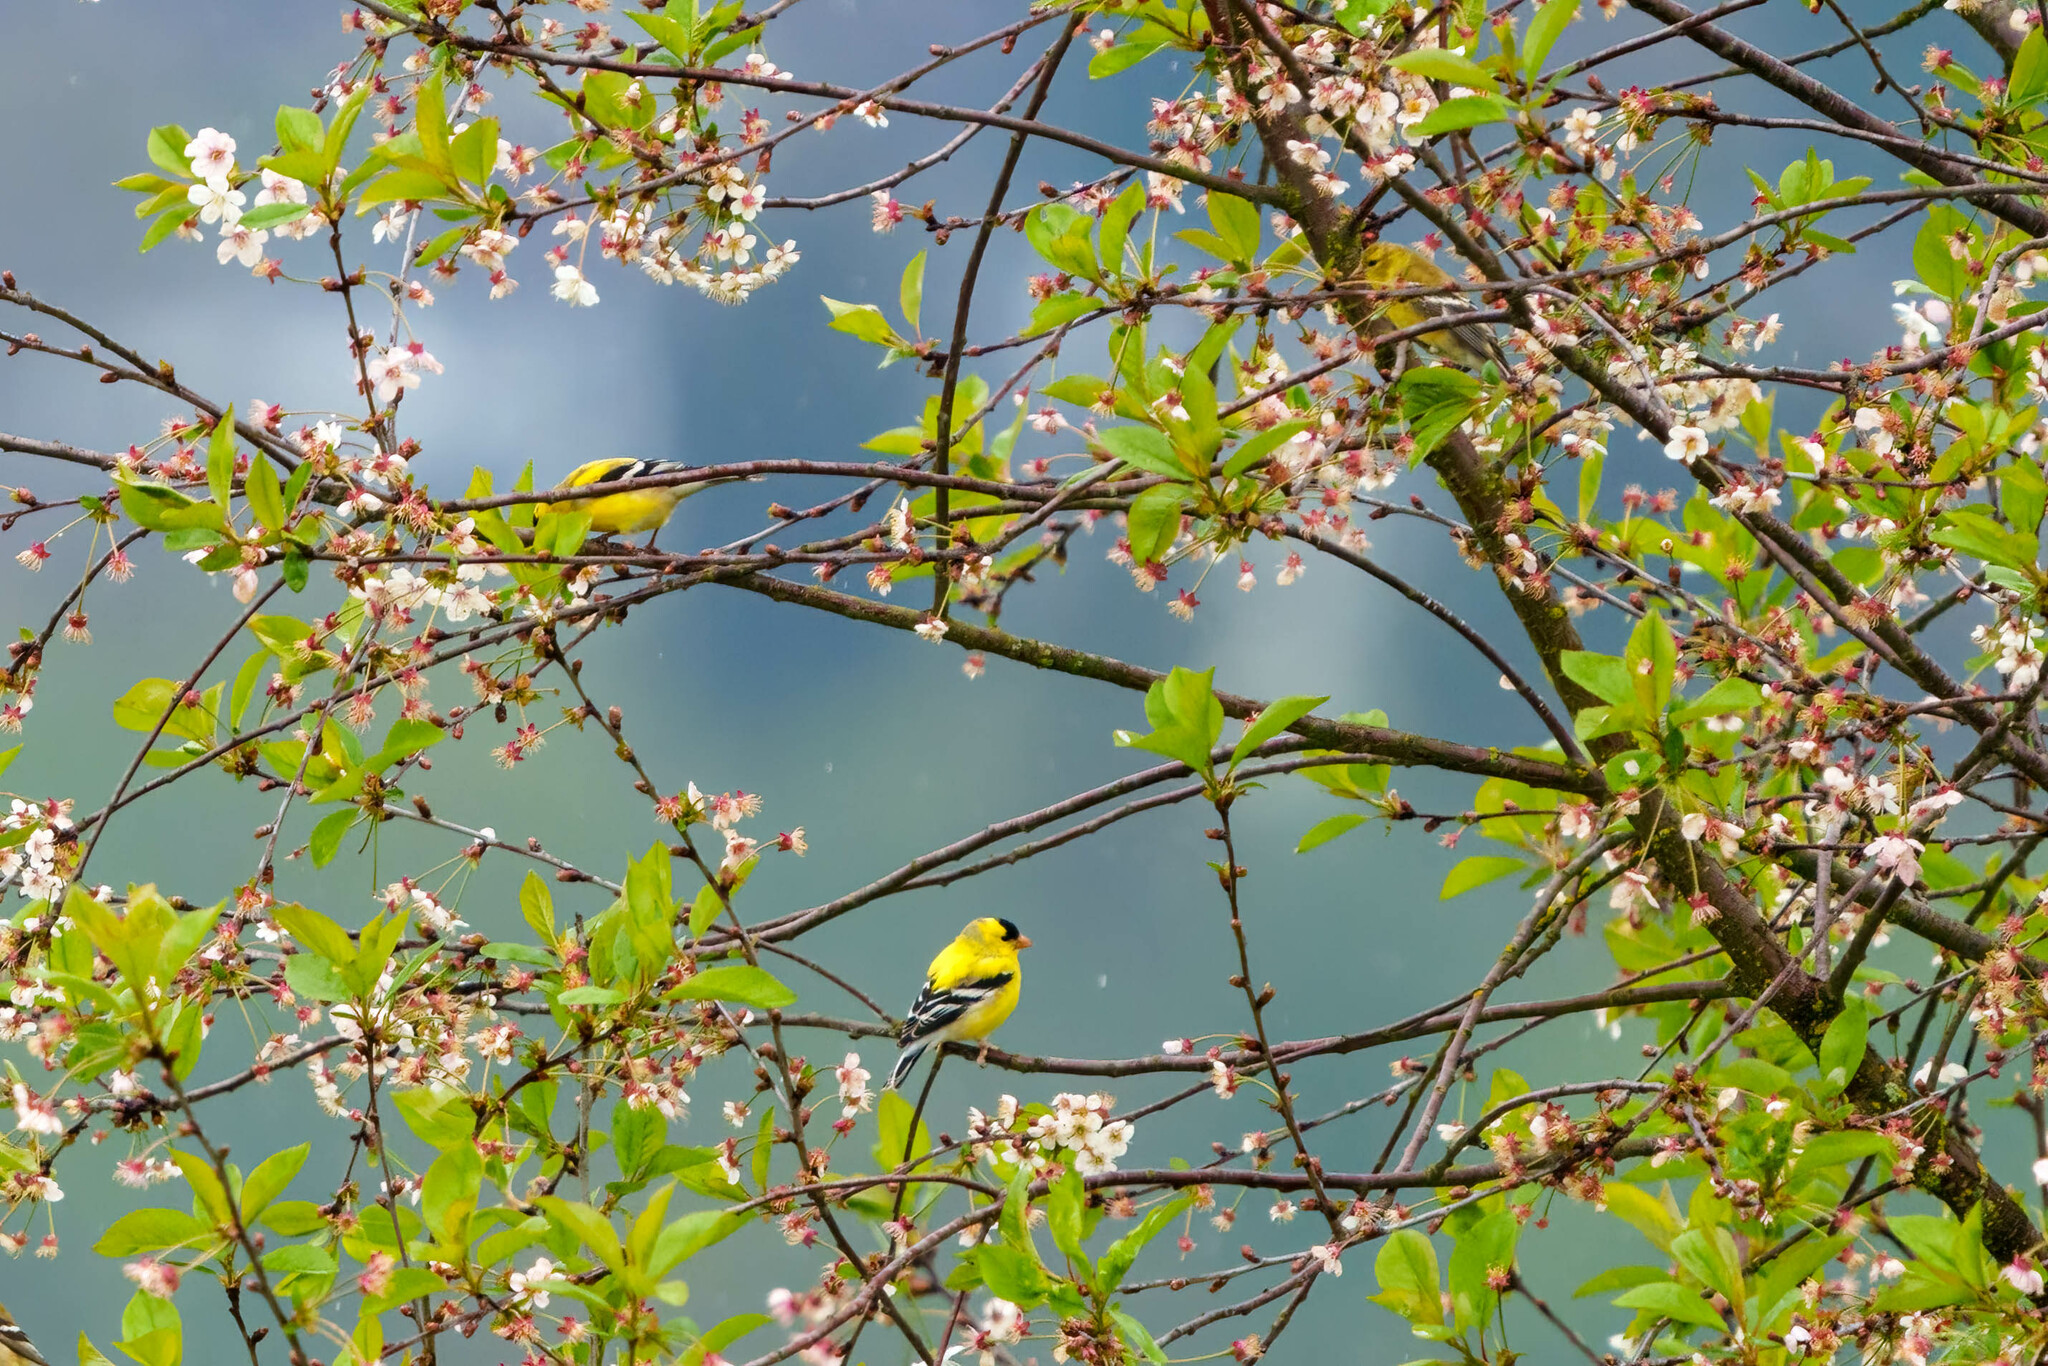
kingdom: Animalia
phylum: Chordata
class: Aves
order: Passeriformes
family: Fringillidae
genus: Spinus
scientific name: Spinus tristis
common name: American goldfinch
